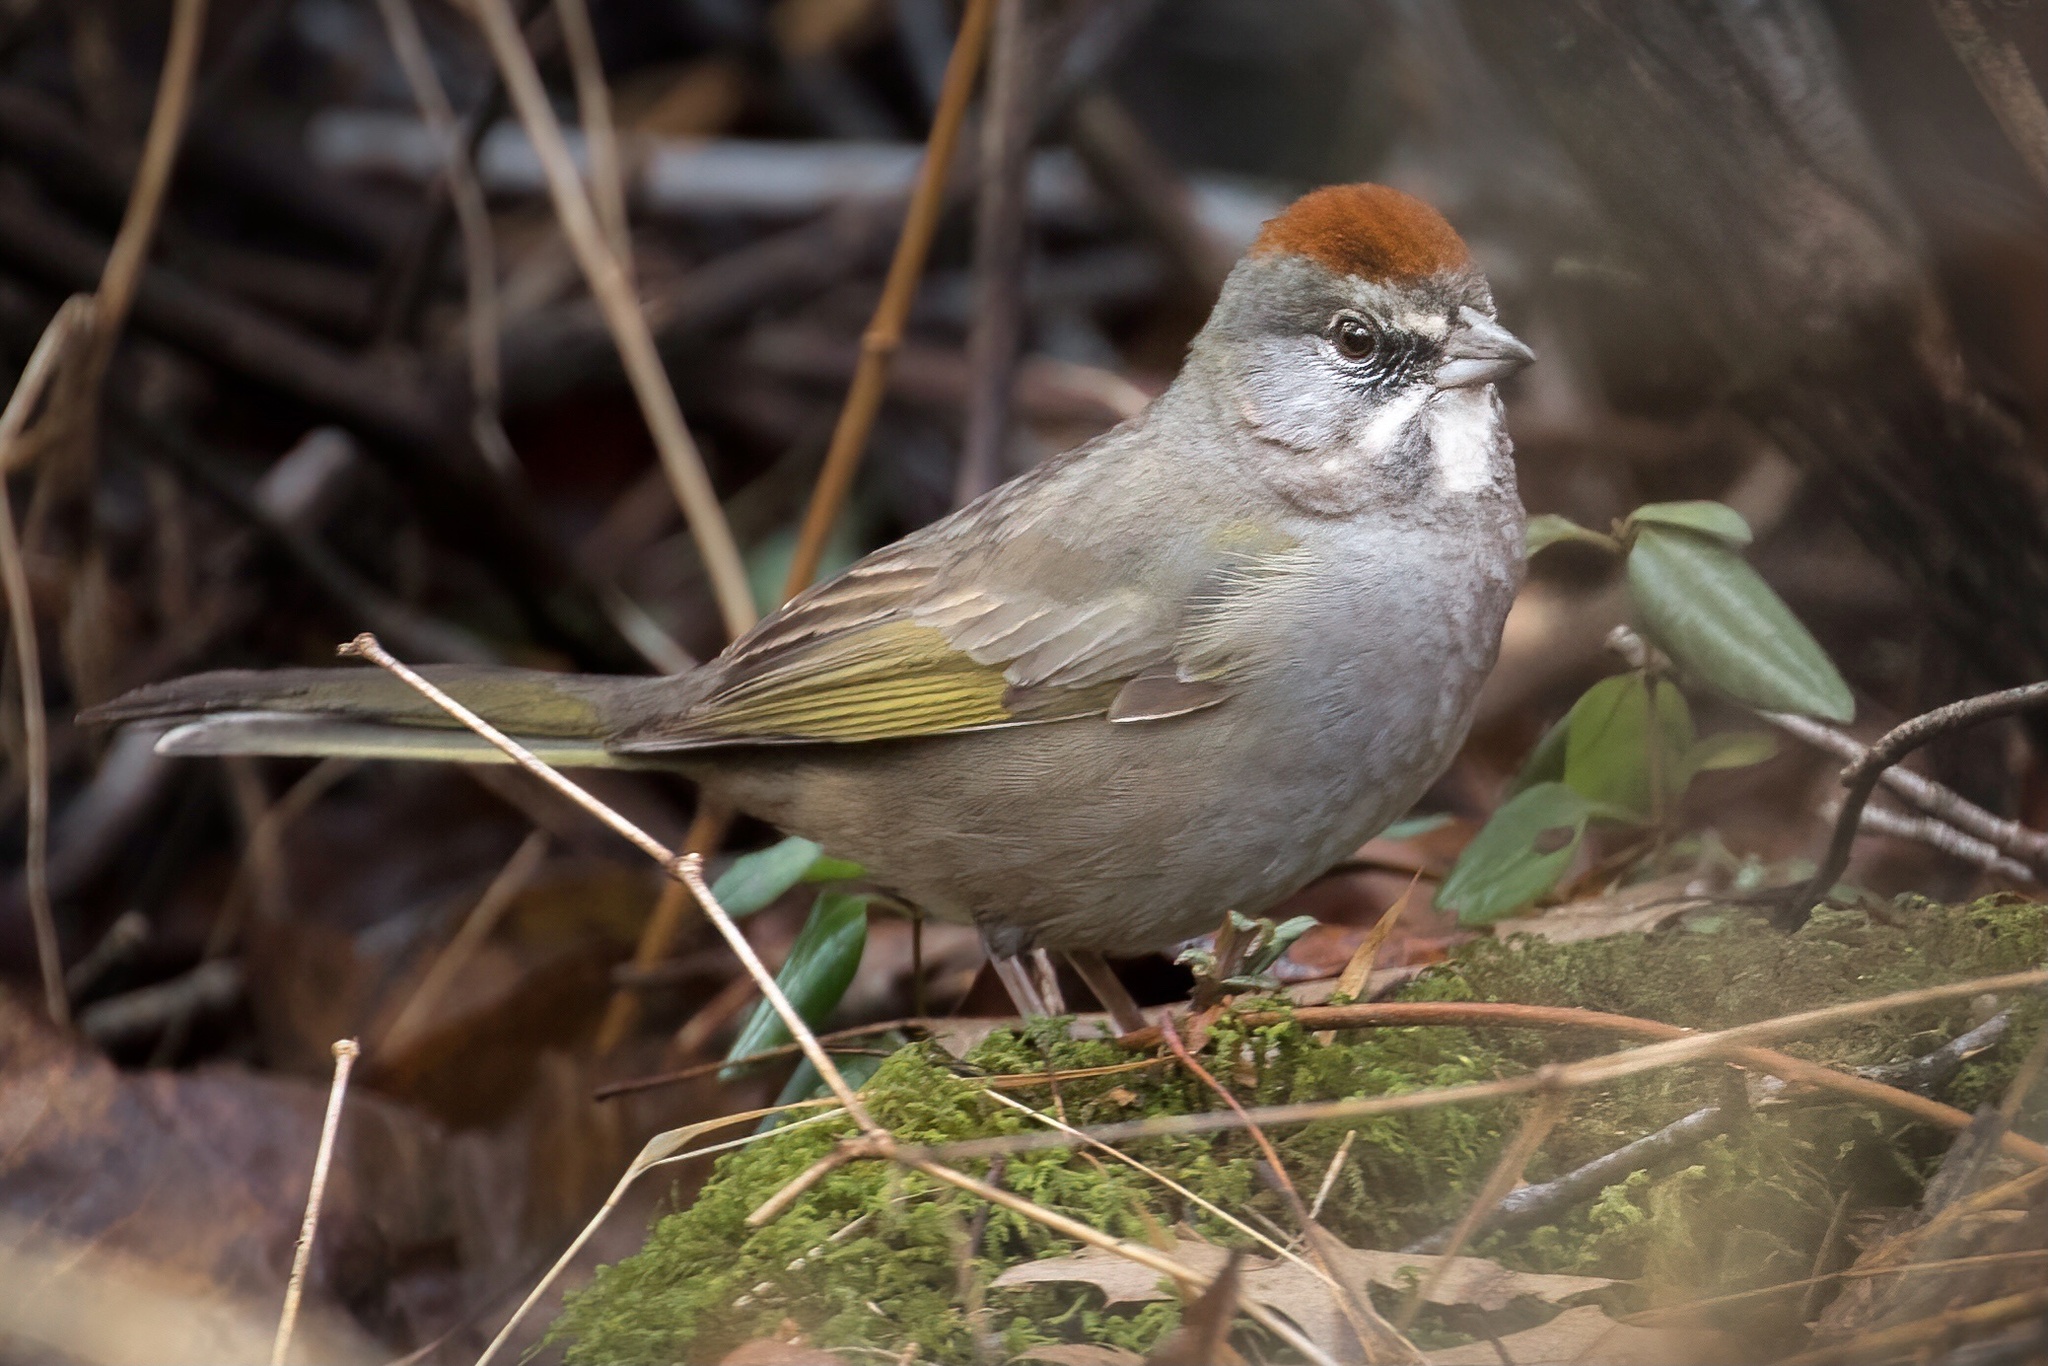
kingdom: Animalia
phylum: Chordata
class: Aves
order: Passeriformes
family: Passerellidae
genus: Pipilo
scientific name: Pipilo chlorurus
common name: Green-tailed towhee
